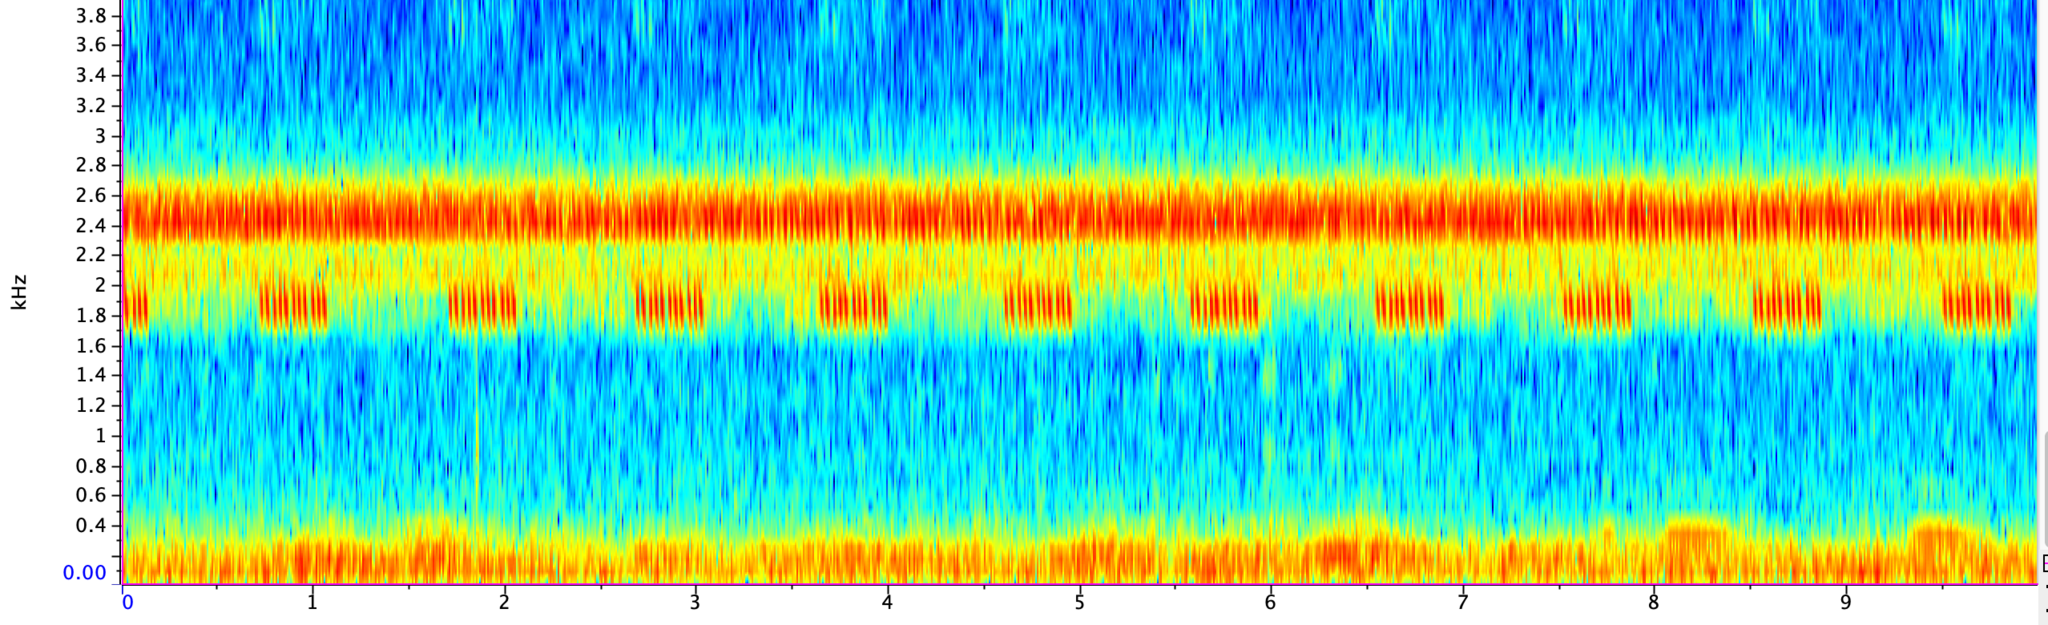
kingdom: Animalia
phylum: Arthropoda
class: Insecta
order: Orthoptera
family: Gryllidae
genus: Oecanthus
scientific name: Oecanthus rileyi
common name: Riley's tree cricket
